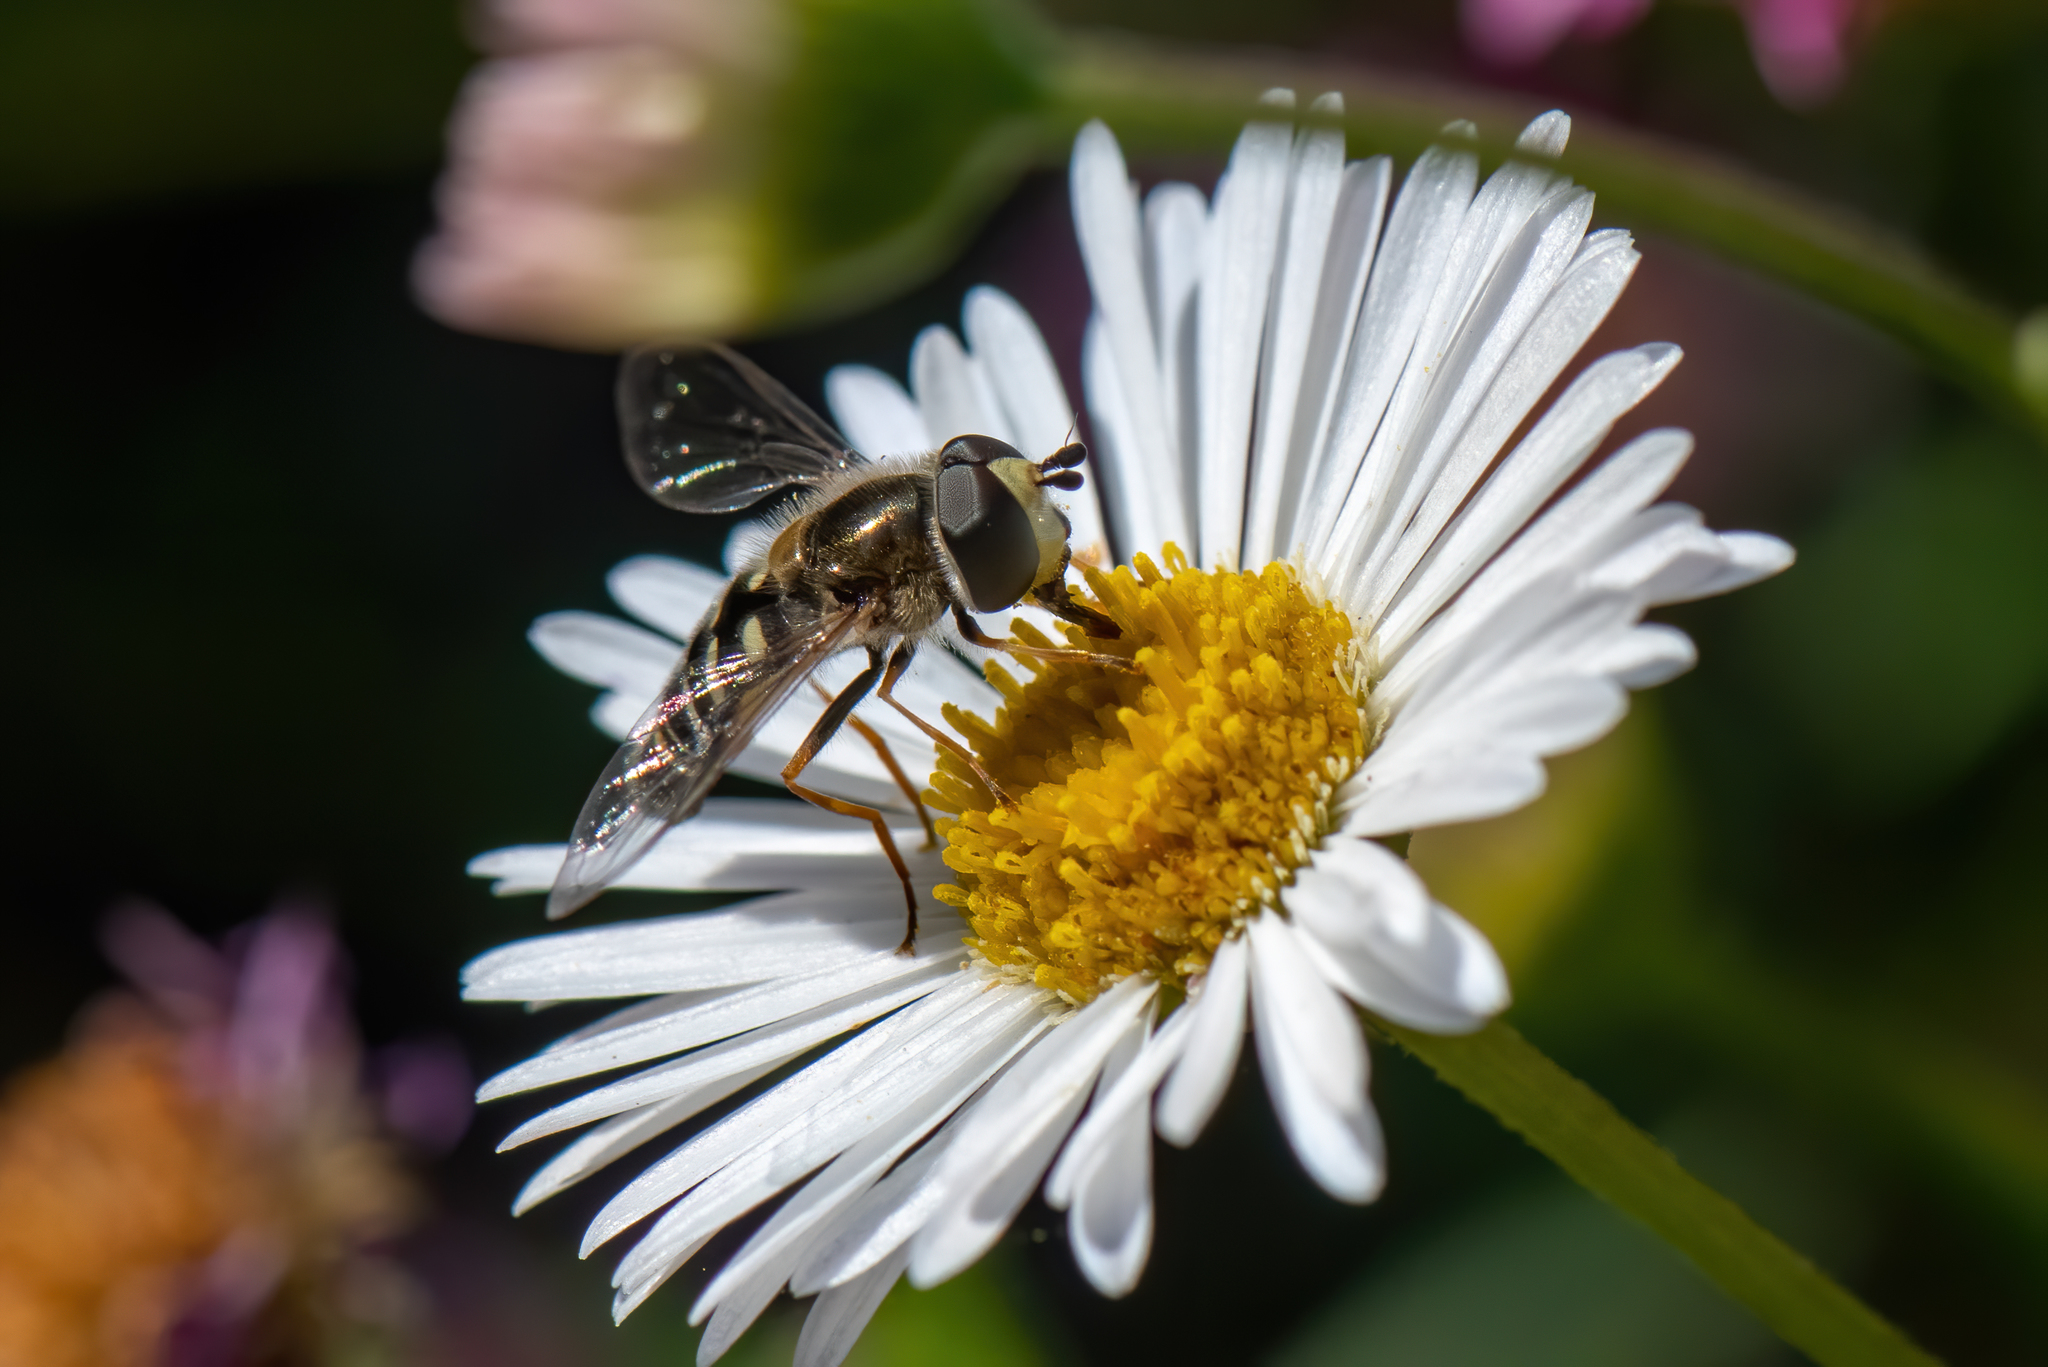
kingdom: Animalia
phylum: Arthropoda
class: Insecta
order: Diptera
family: Syrphidae
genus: Eupeodes
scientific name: Eupeodes volucris
